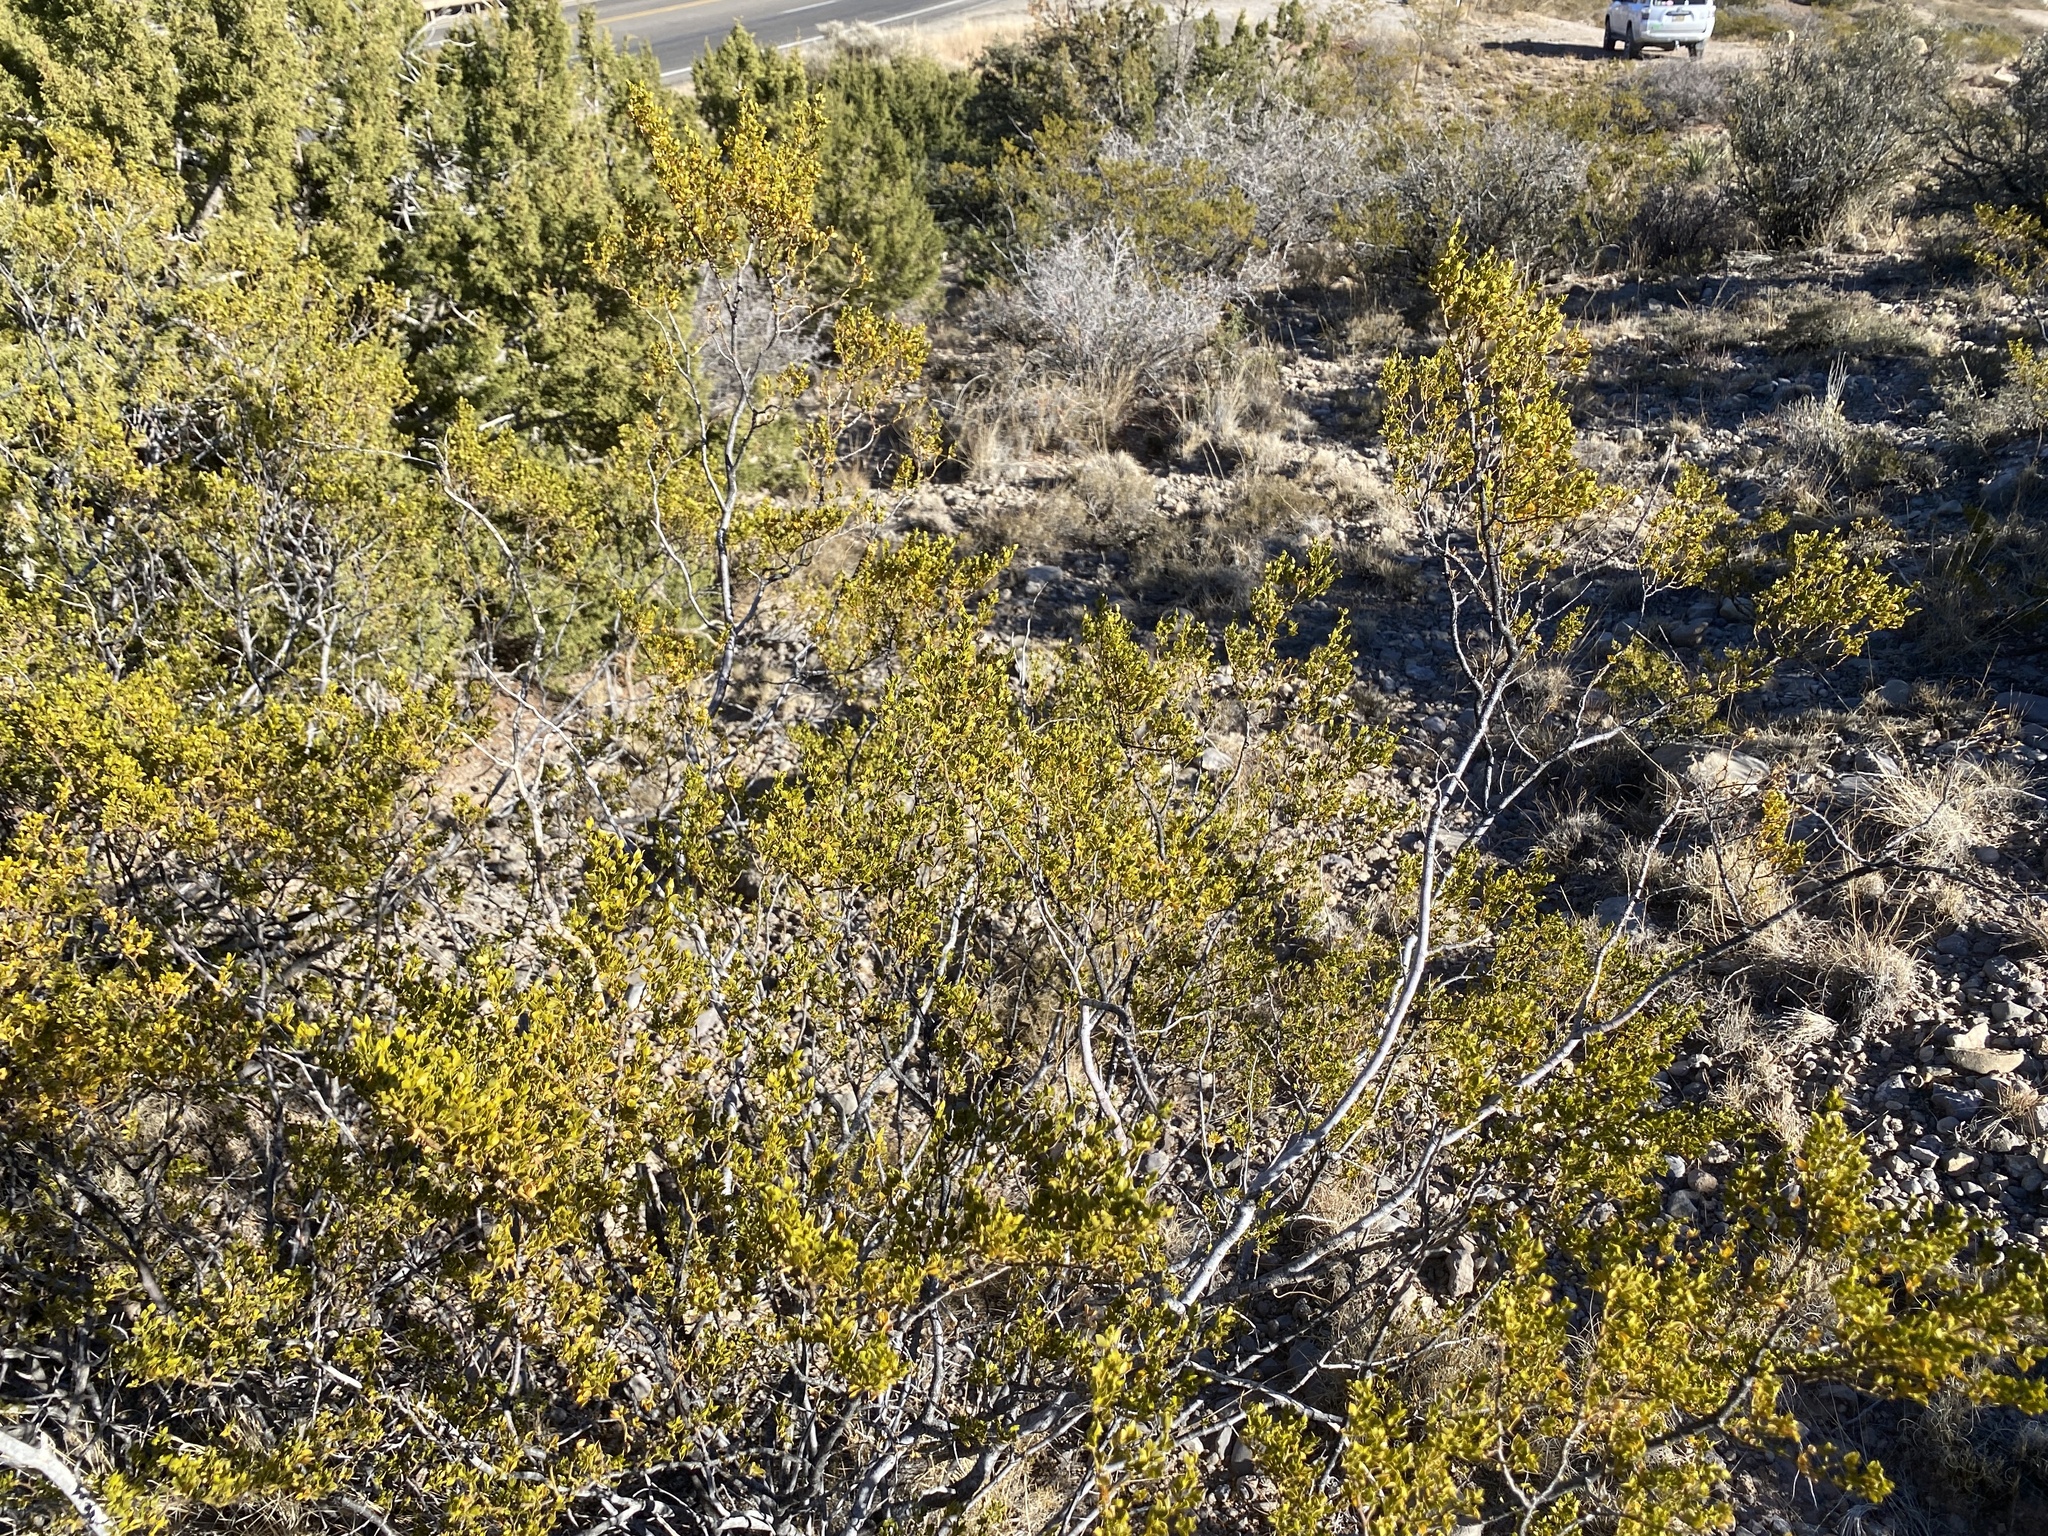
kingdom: Plantae
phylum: Tracheophyta
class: Magnoliopsida
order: Zygophyllales
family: Zygophyllaceae
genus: Larrea
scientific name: Larrea tridentata
